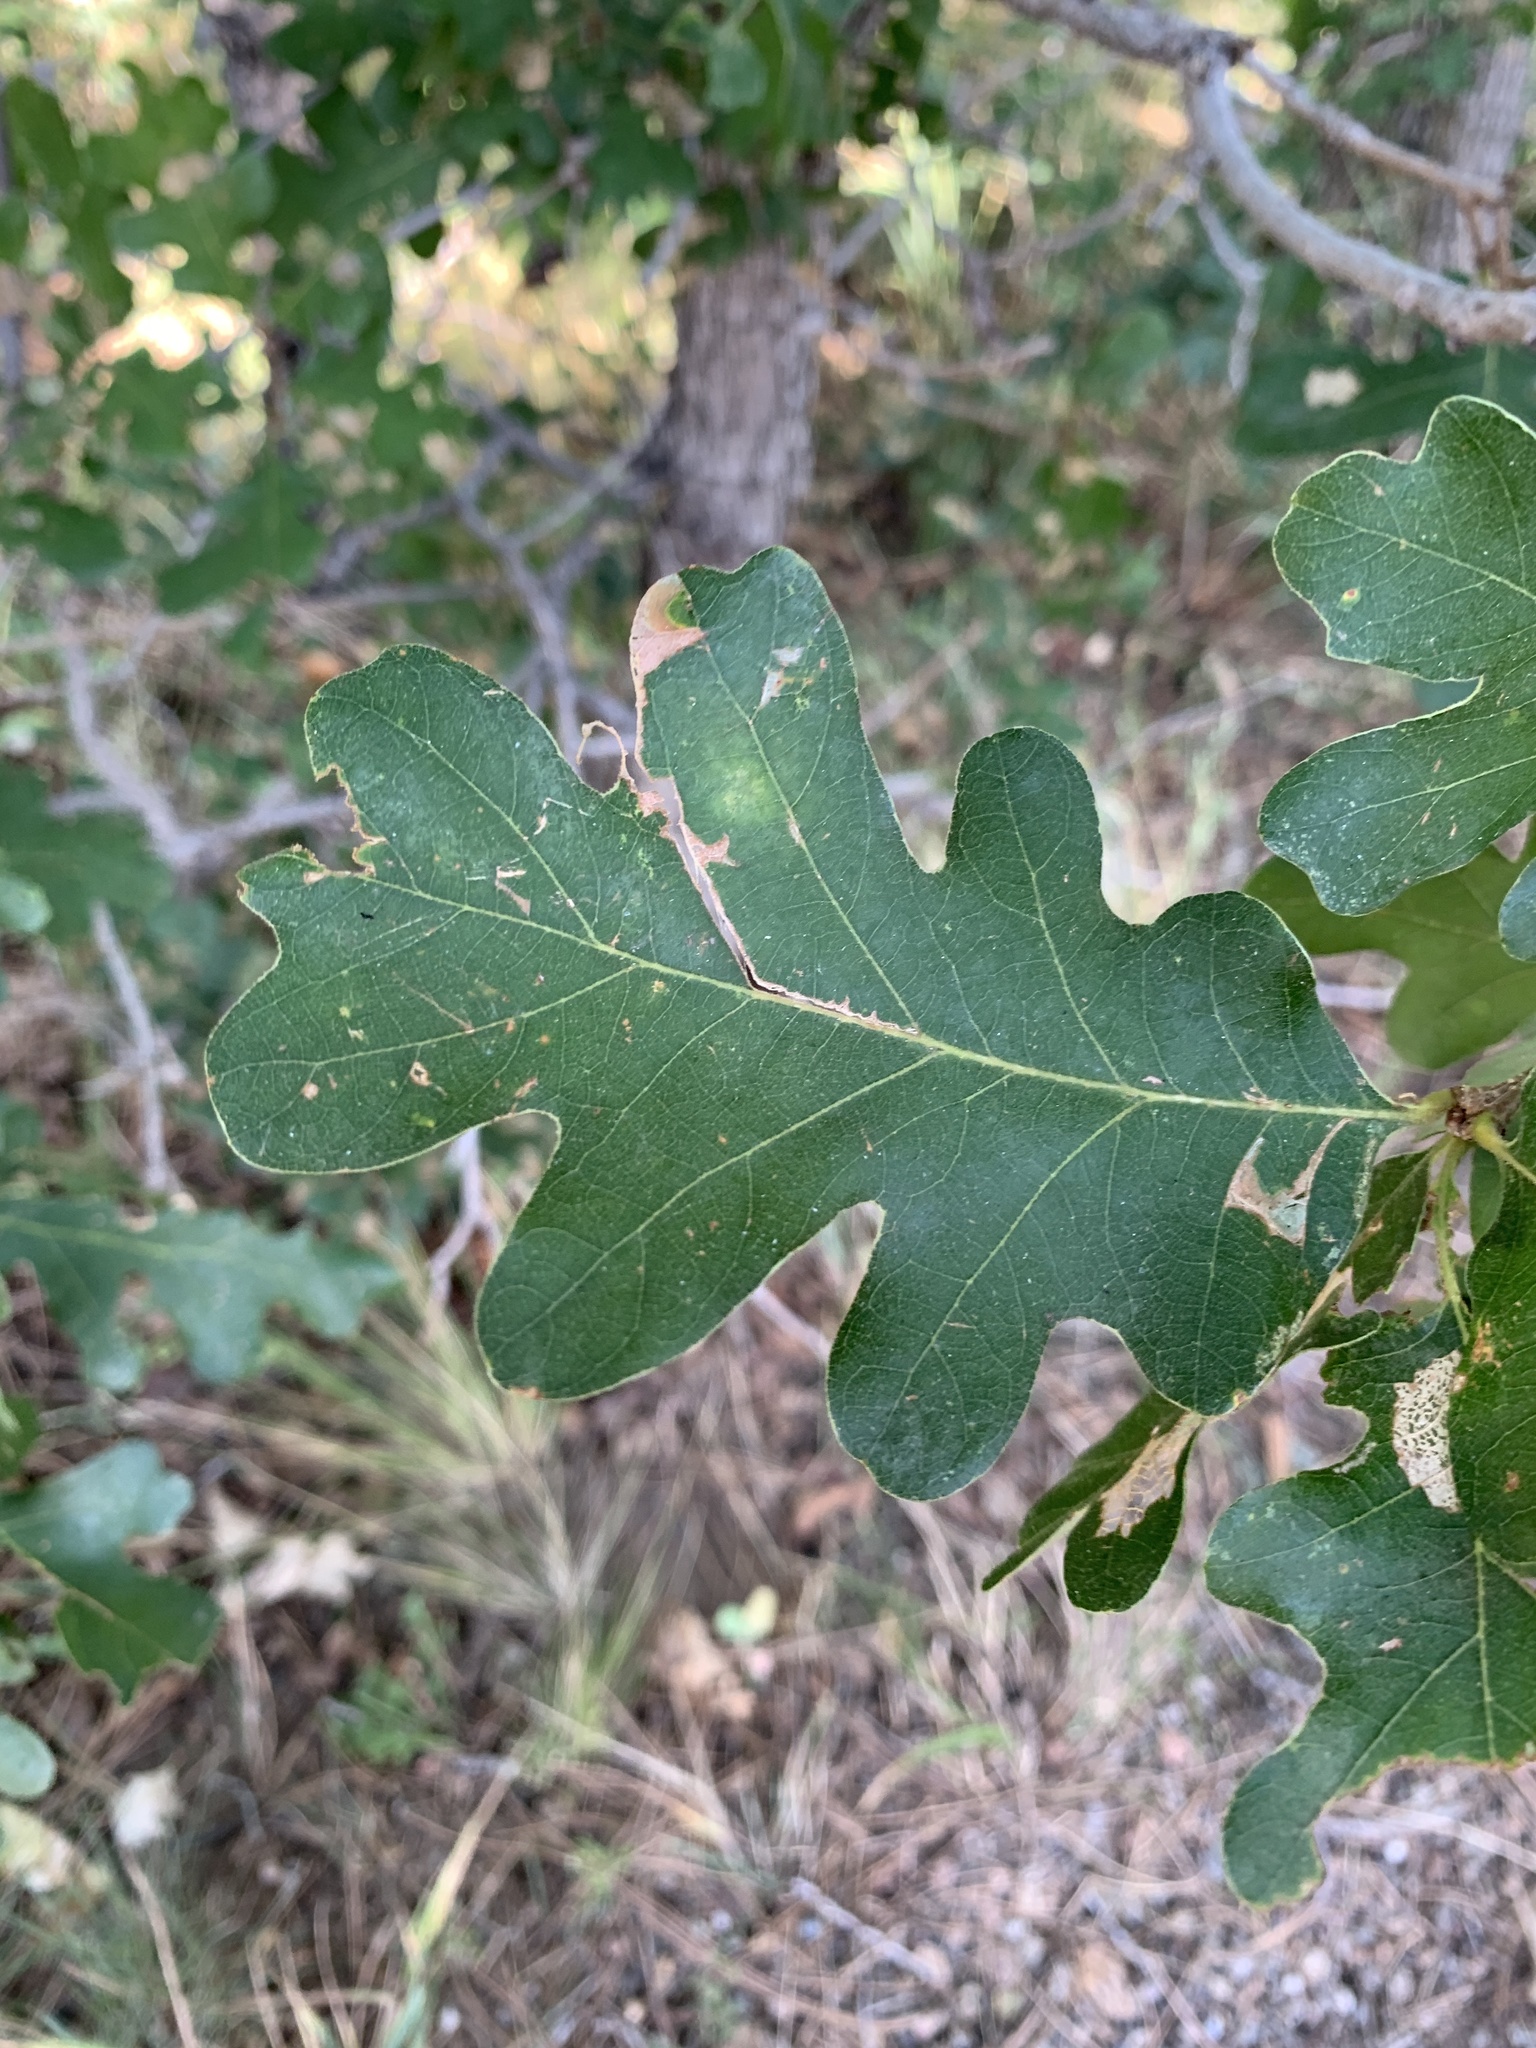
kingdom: Plantae
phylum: Tracheophyta
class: Magnoliopsida
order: Fagales
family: Fagaceae
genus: Quercus
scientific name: Quercus gambelii
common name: Gambel oak
